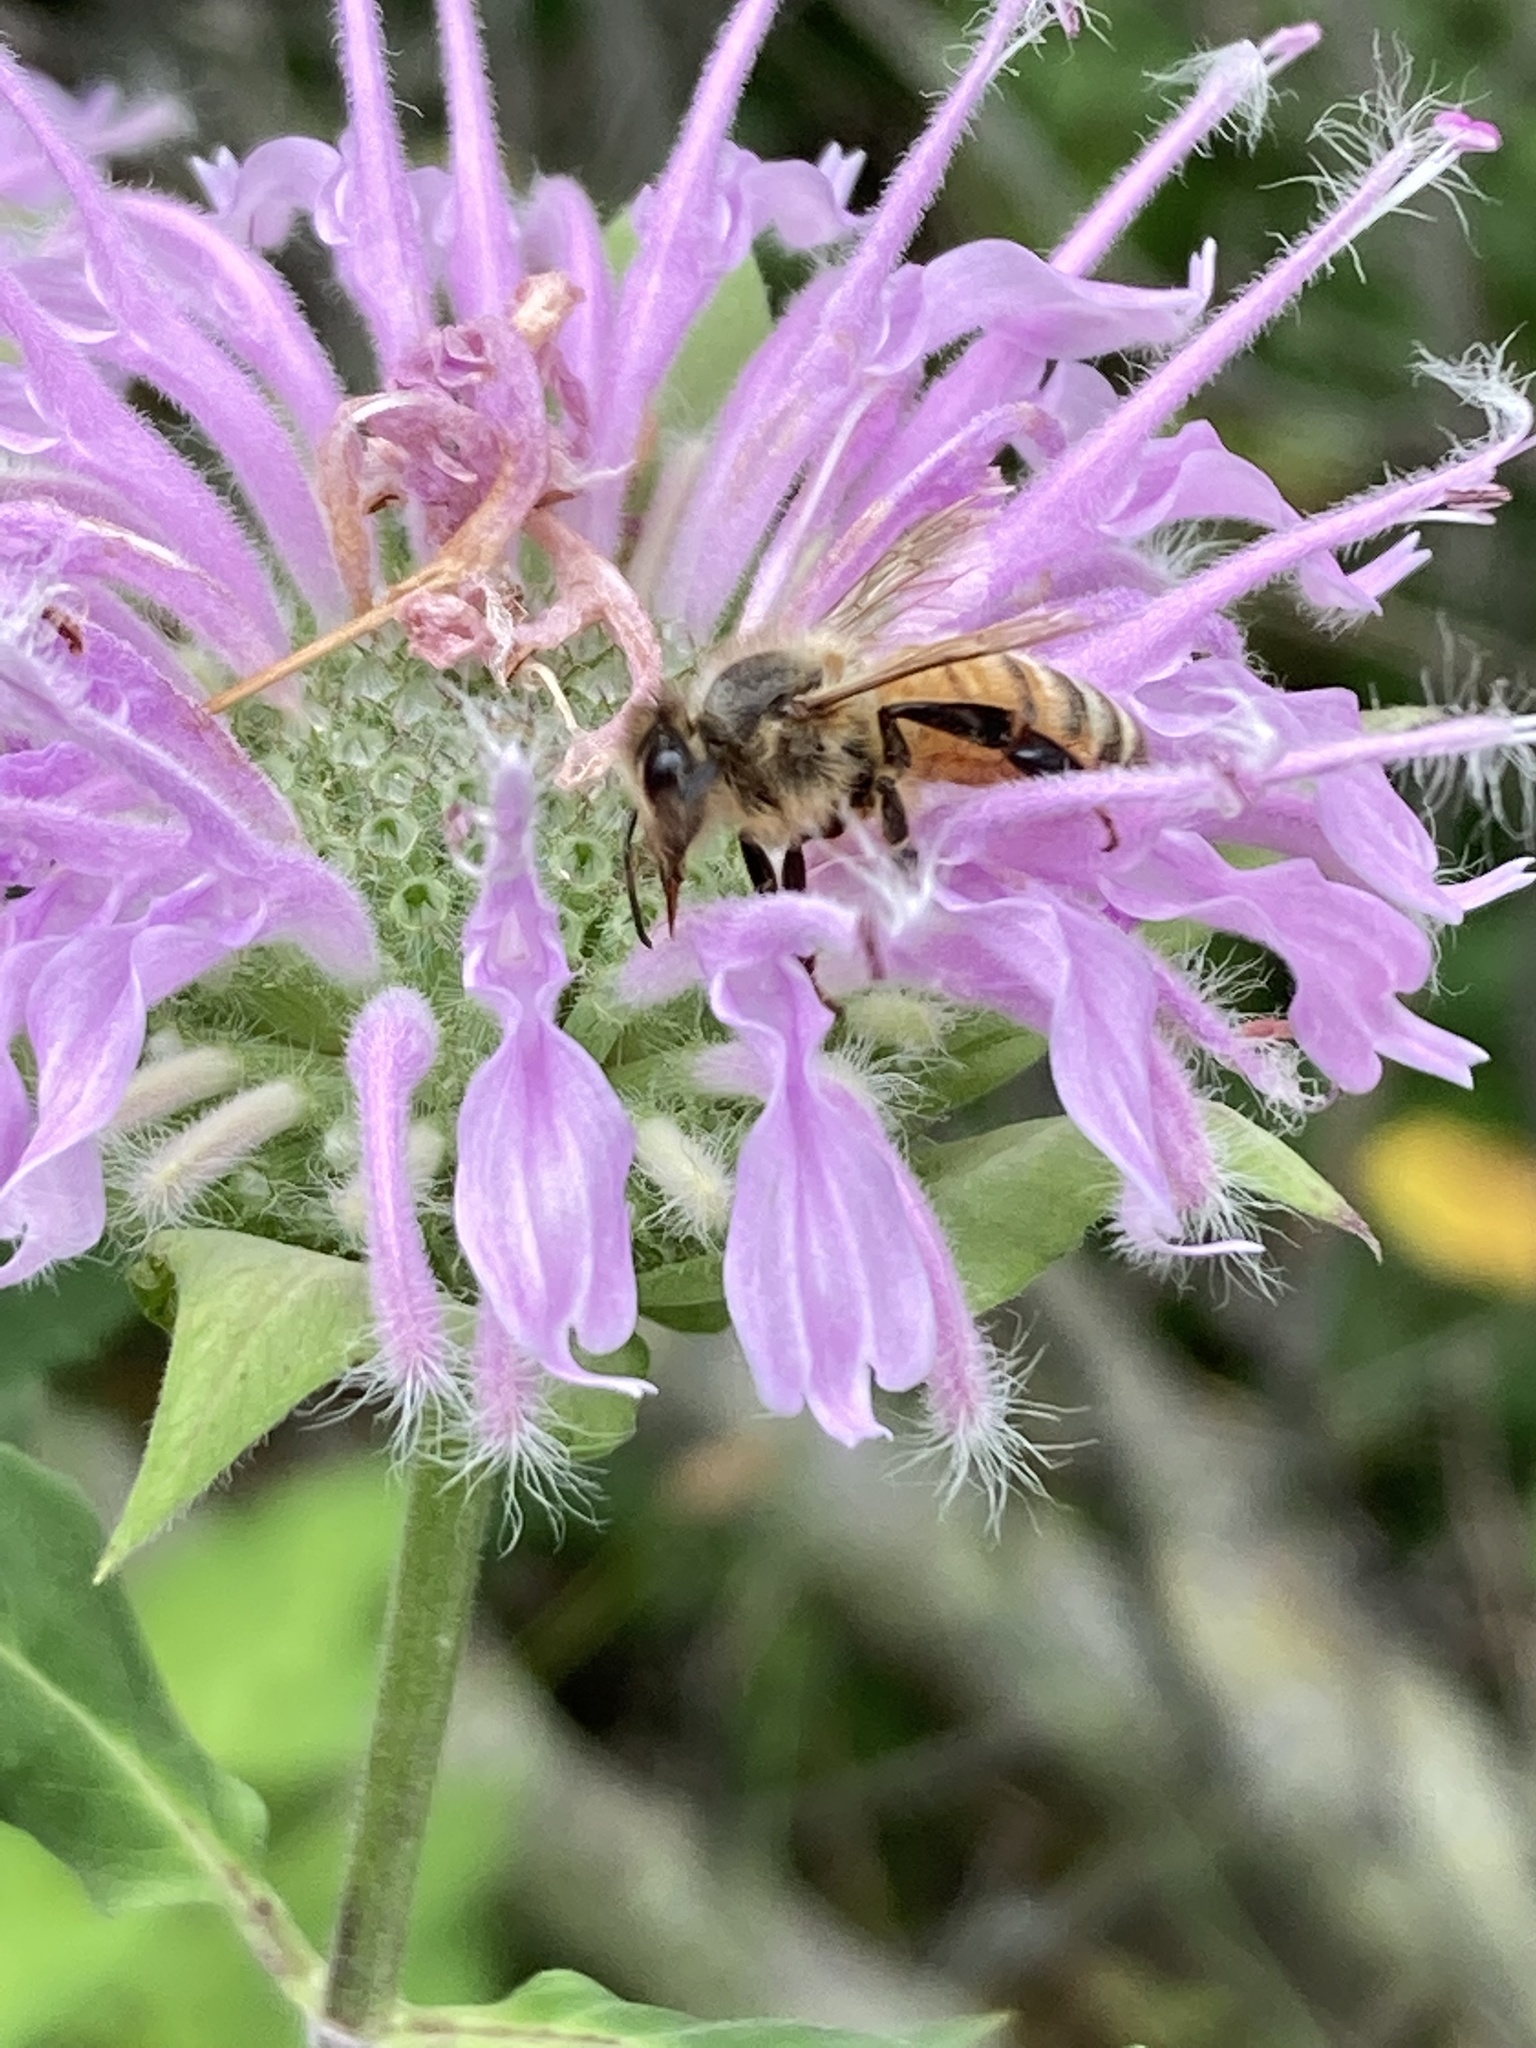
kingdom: Animalia
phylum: Arthropoda
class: Insecta
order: Hymenoptera
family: Apidae
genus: Apis
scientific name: Apis mellifera
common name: Honey bee
